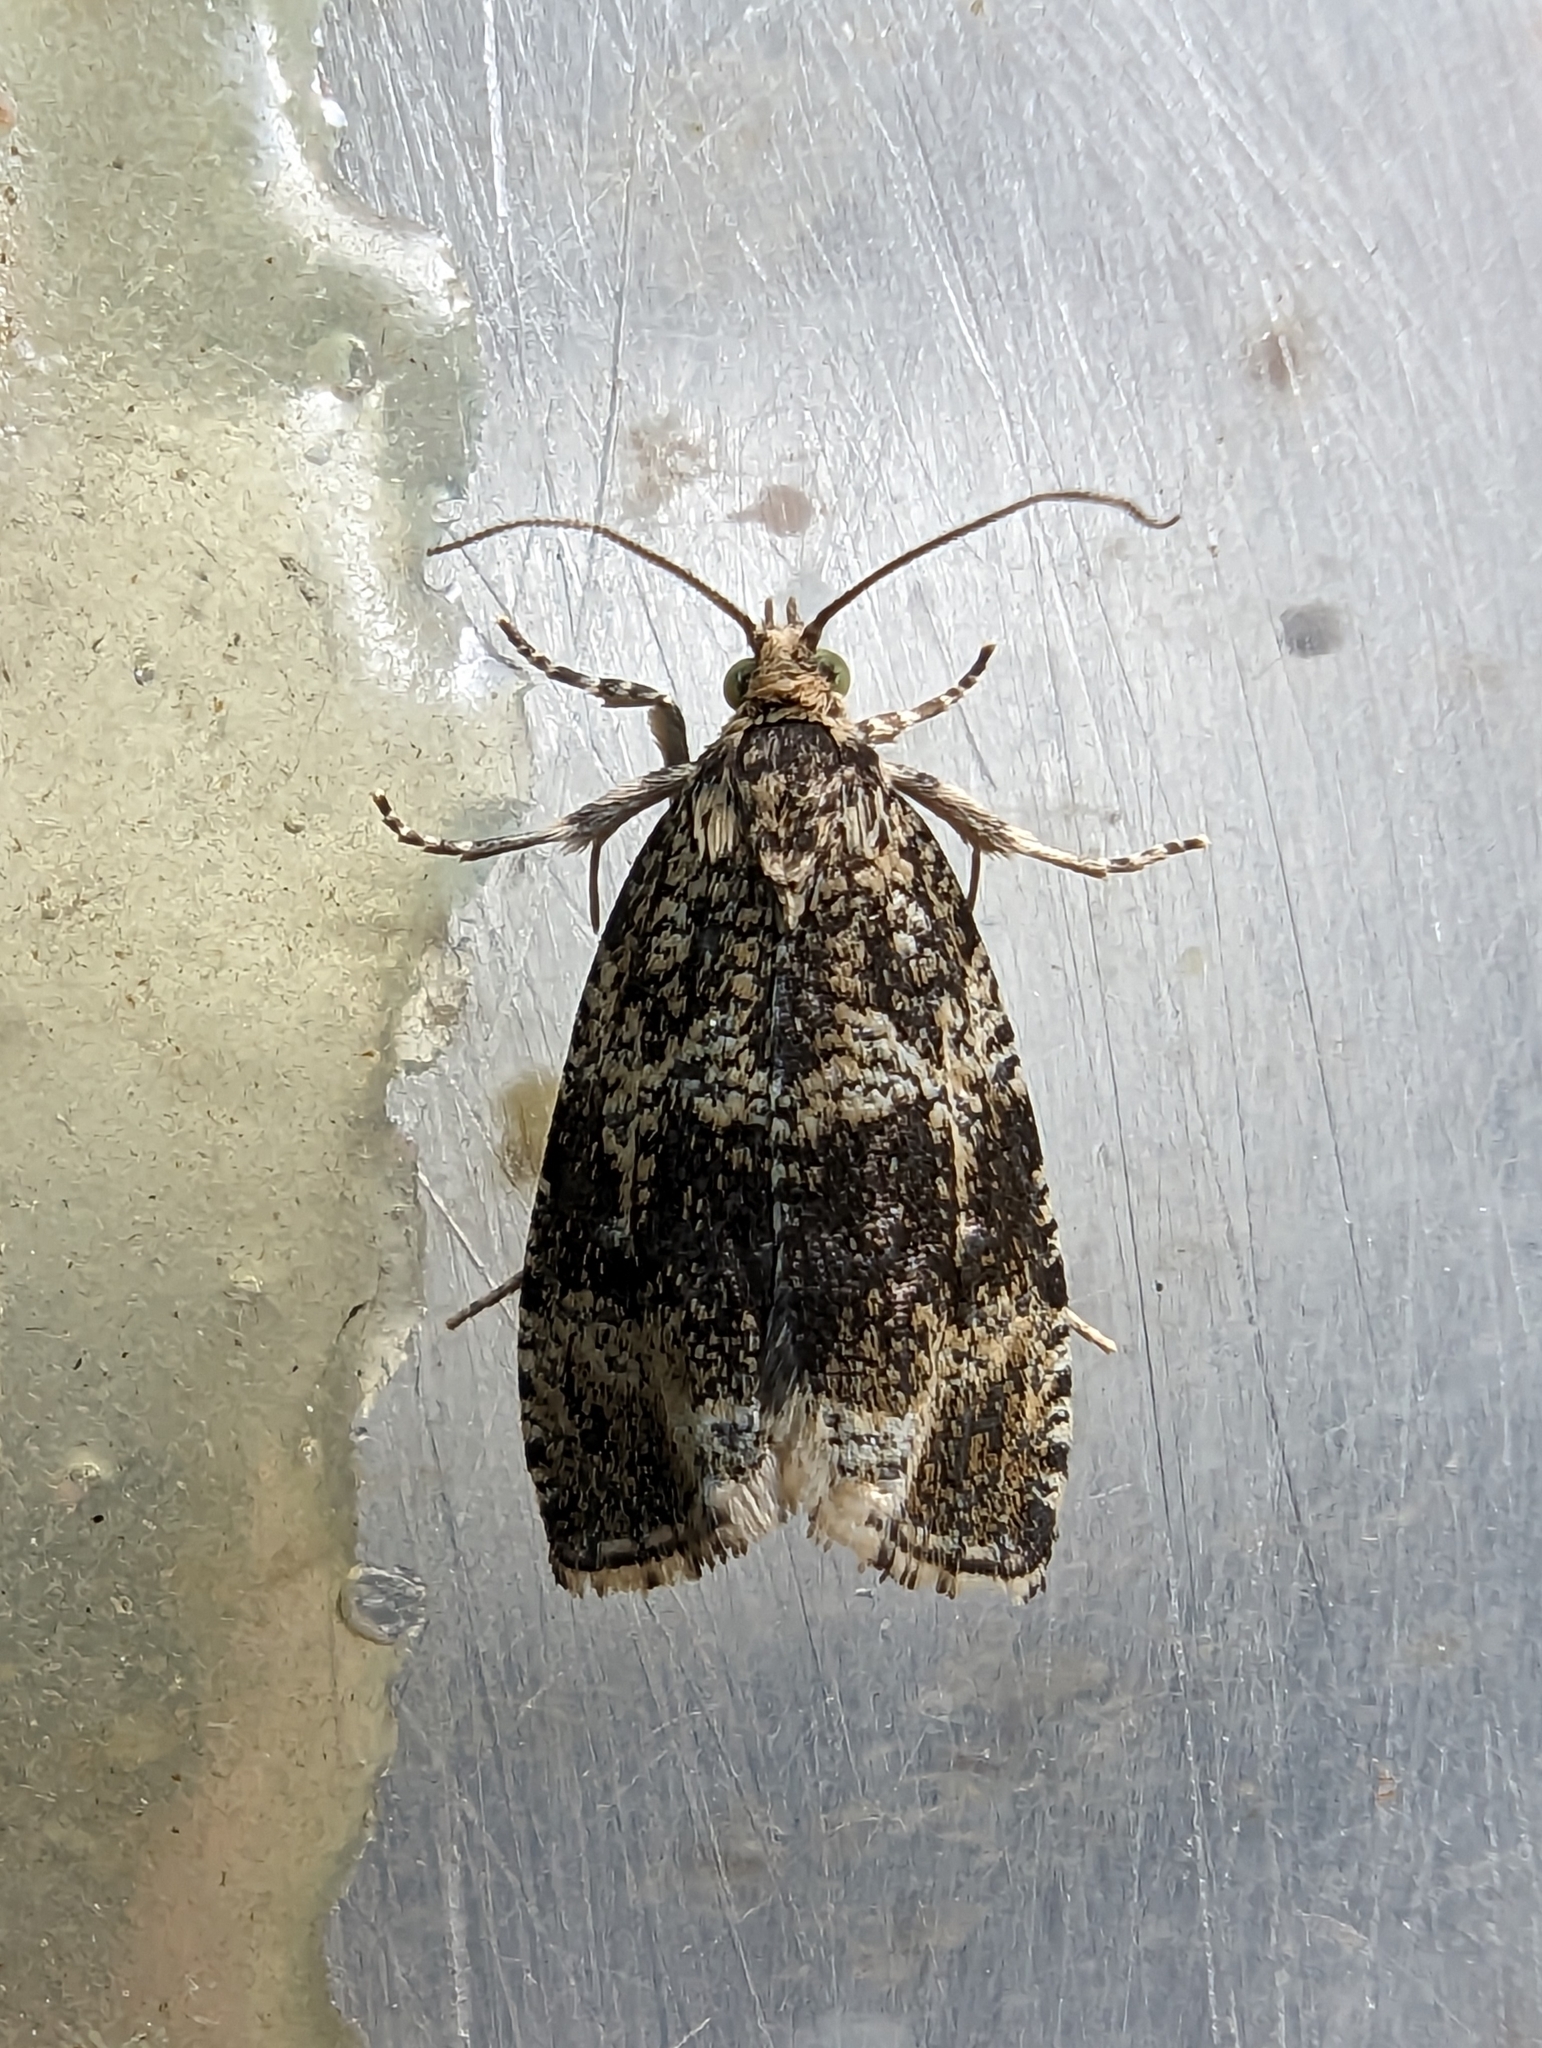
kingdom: Animalia
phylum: Arthropoda
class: Insecta
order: Lepidoptera
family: Tortricidae
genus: Syricoris
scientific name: Syricoris lacunana
